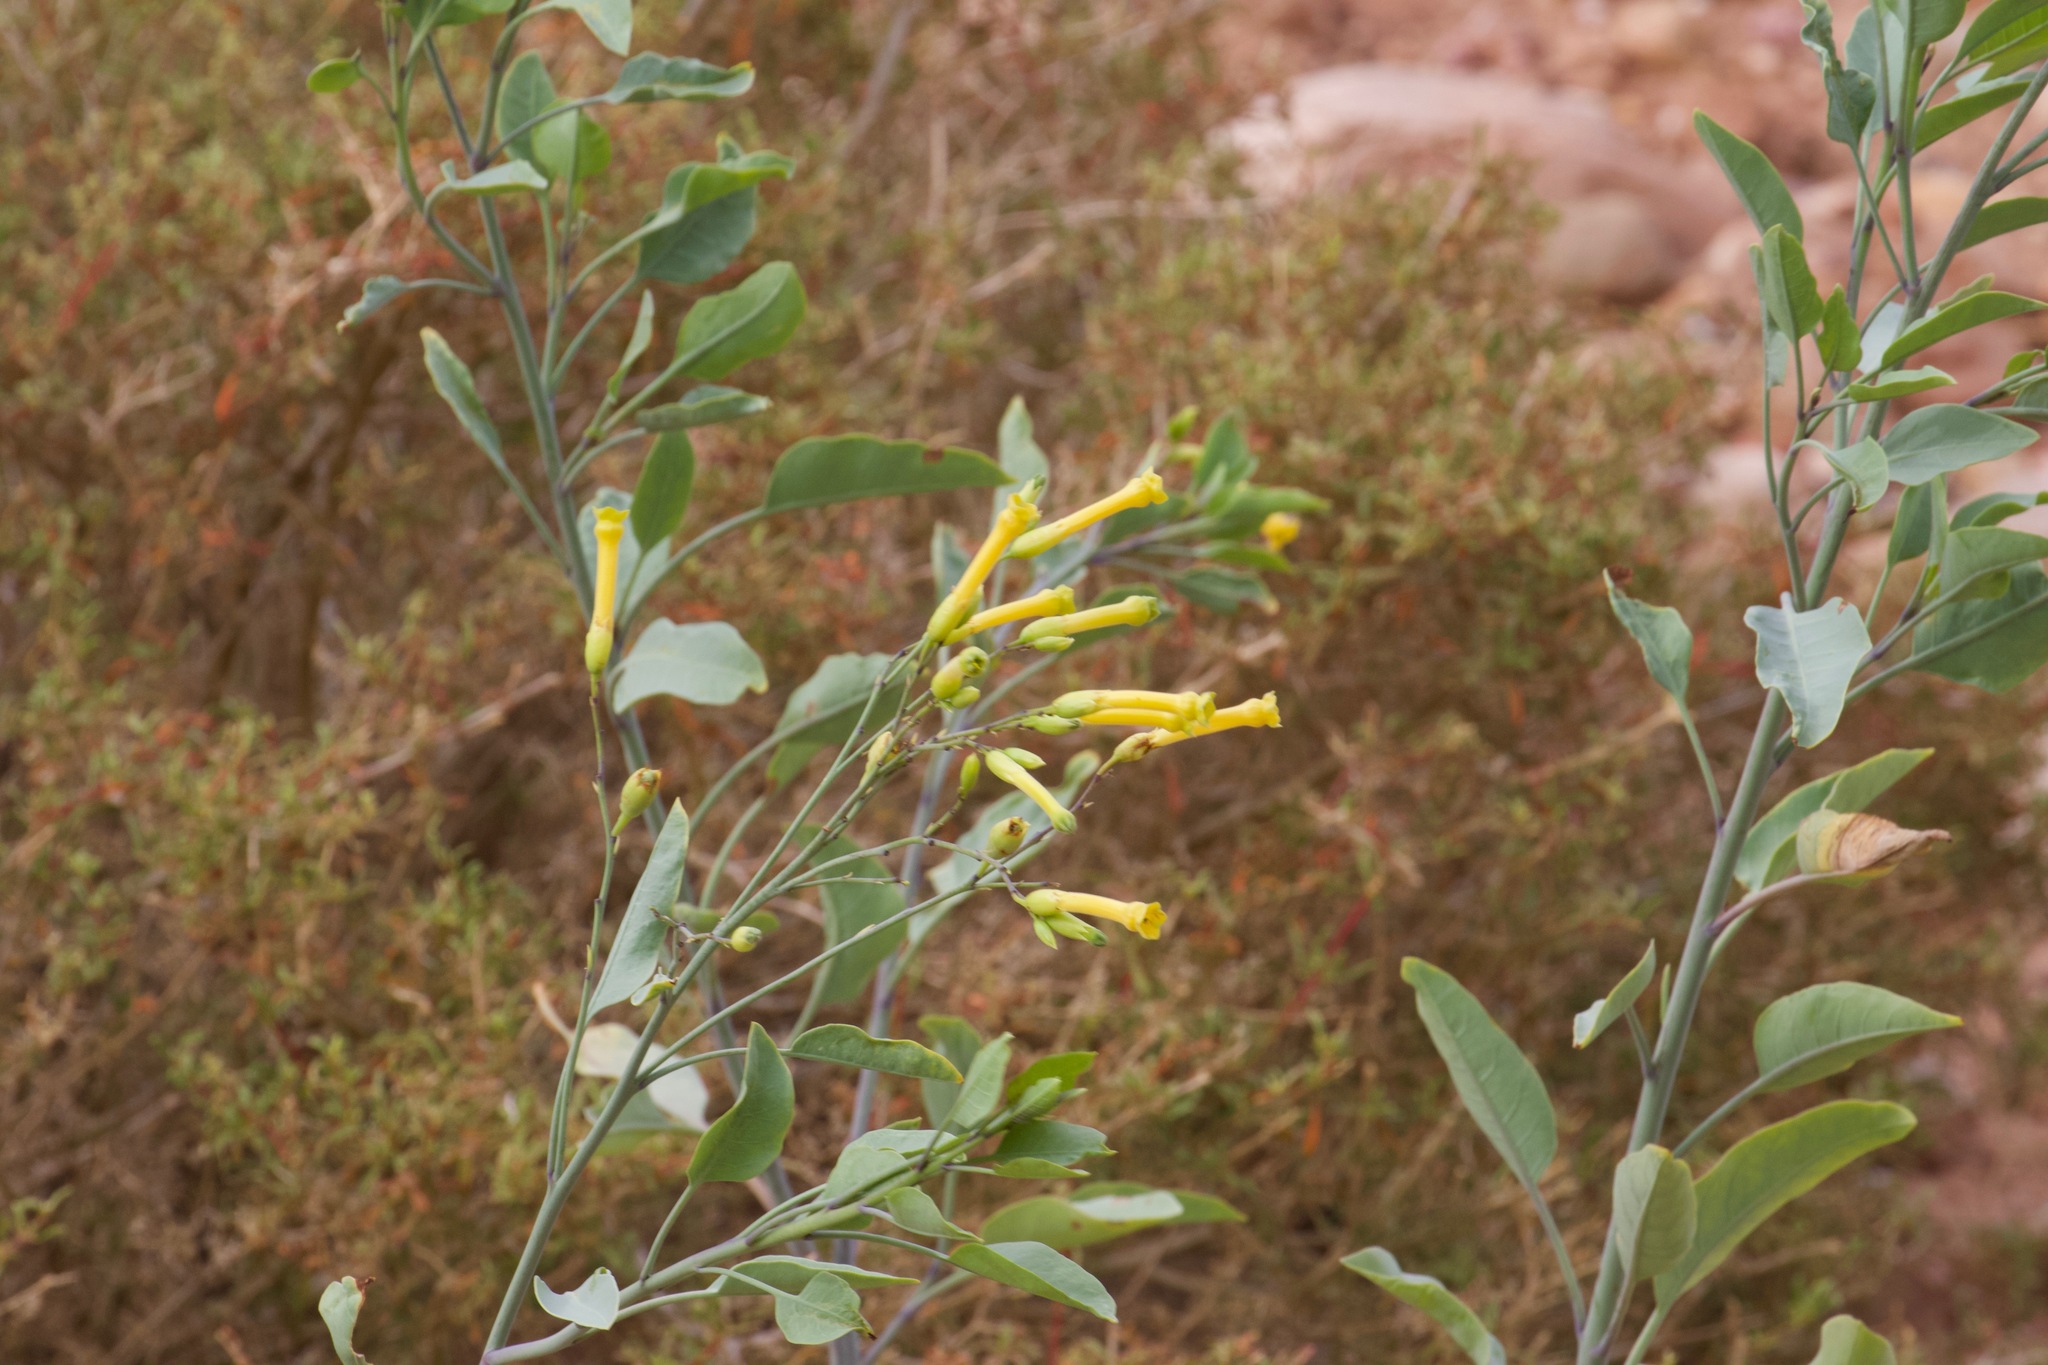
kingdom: Plantae
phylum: Tracheophyta
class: Magnoliopsida
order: Solanales
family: Solanaceae
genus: Nicotiana
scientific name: Nicotiana glauca
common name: Tree tobacco
